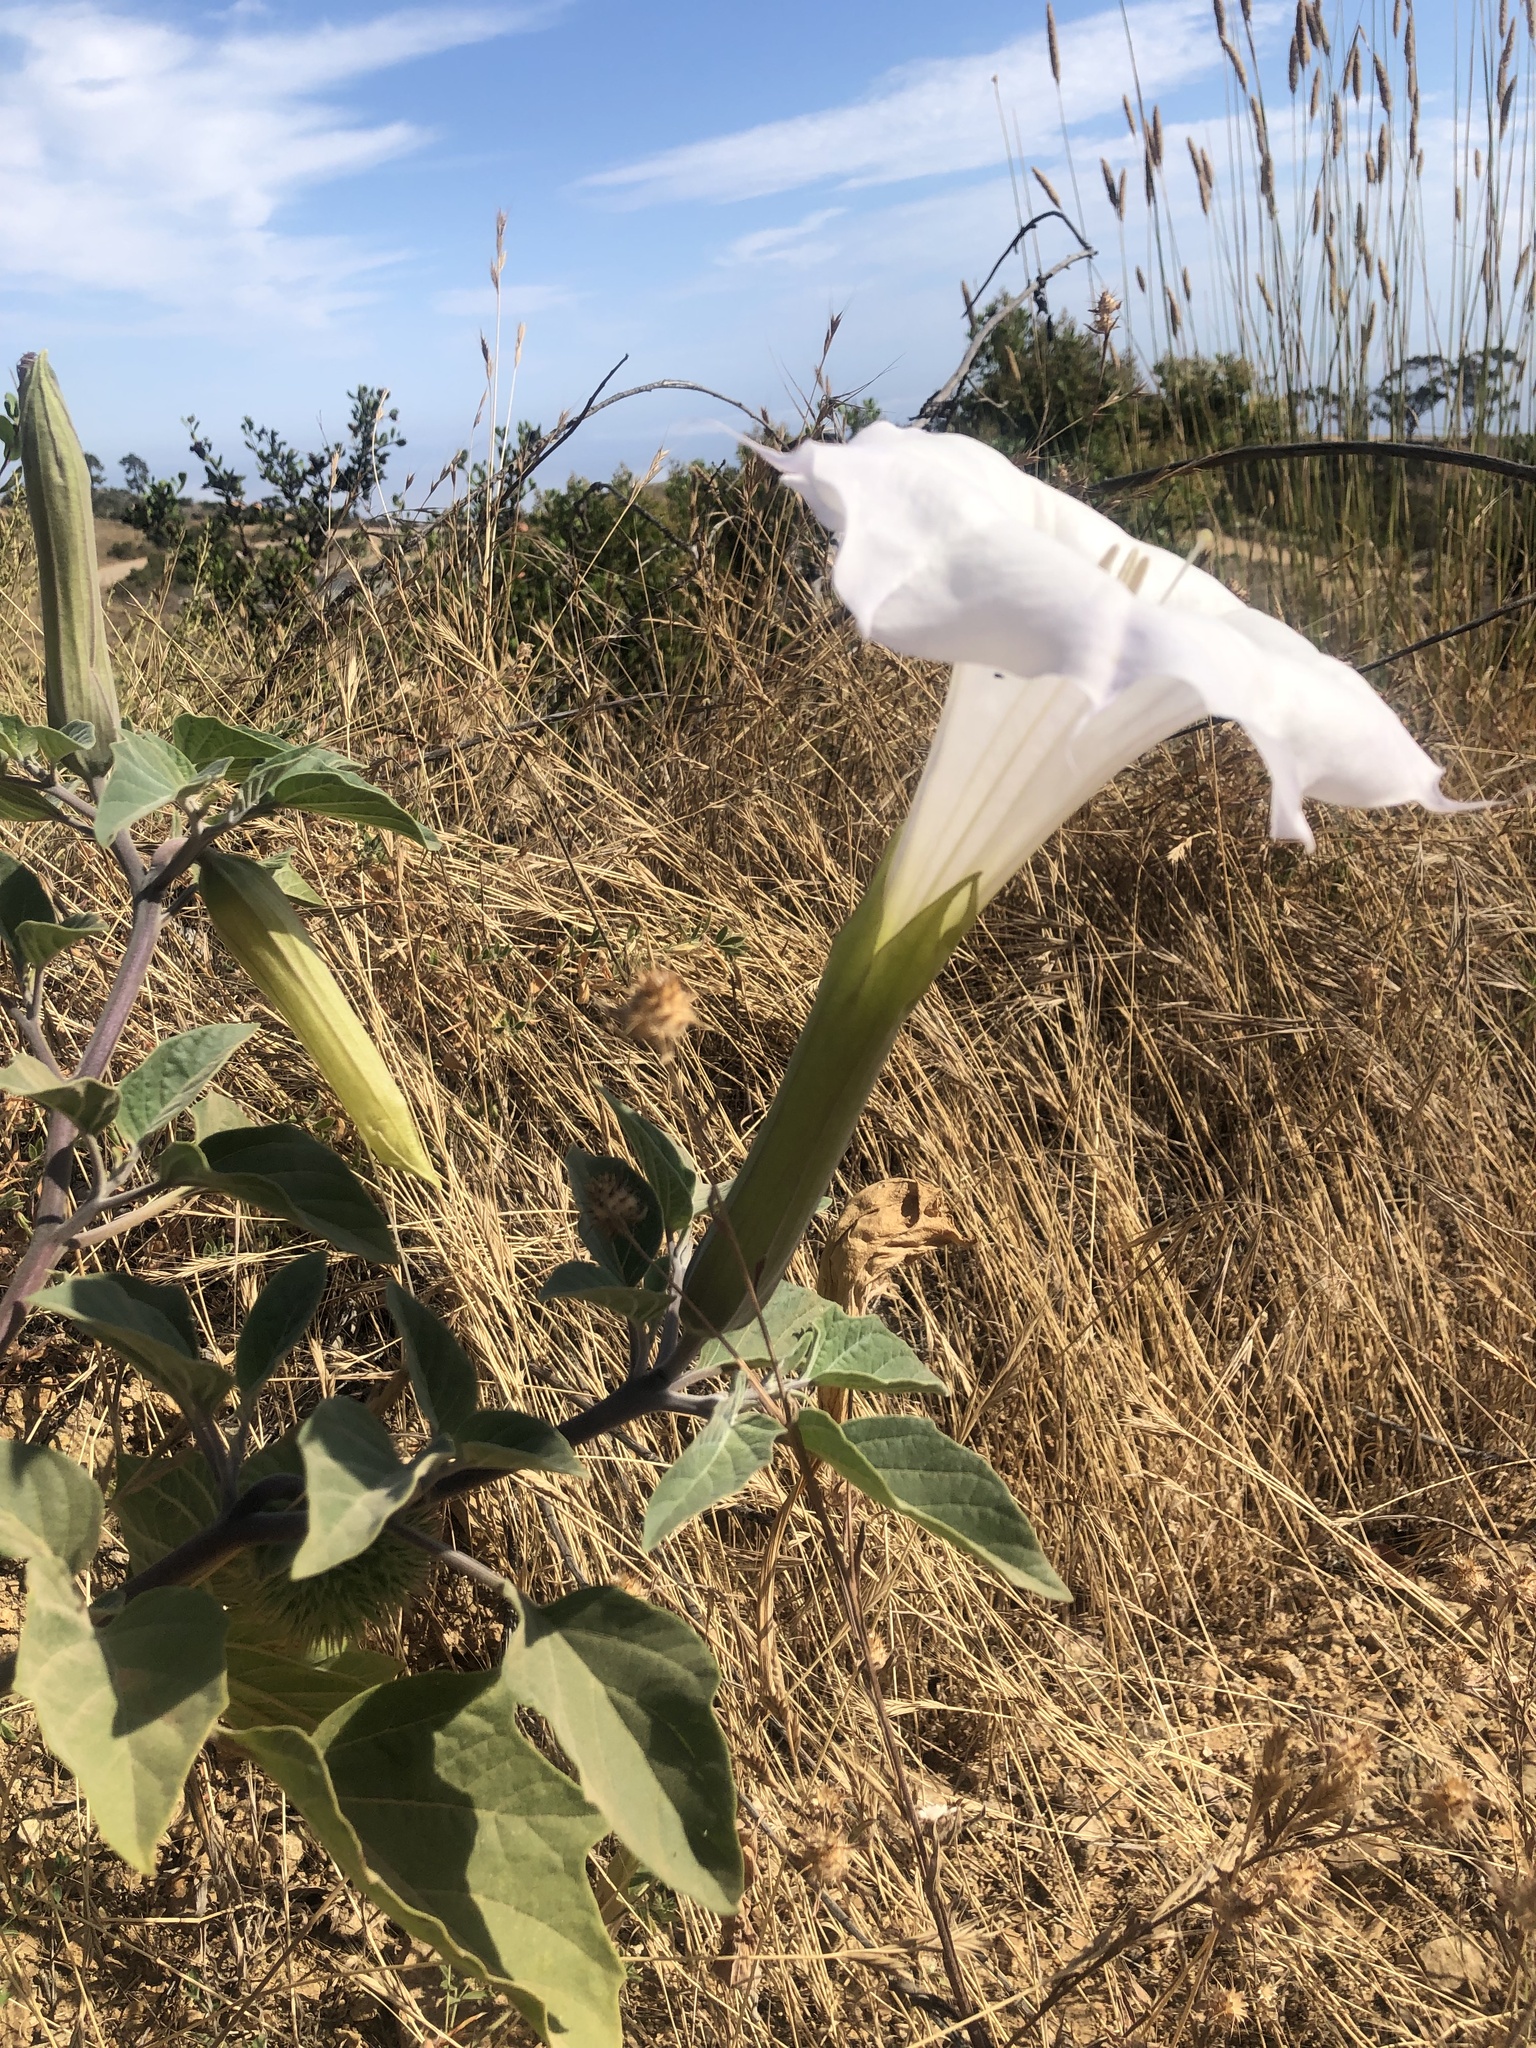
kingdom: Plantae
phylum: Tracheophyta
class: Magnoliopsida
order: Solanales
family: Solanaceae
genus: Datura
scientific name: Datura wrightii
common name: Sacred thorn-apple
